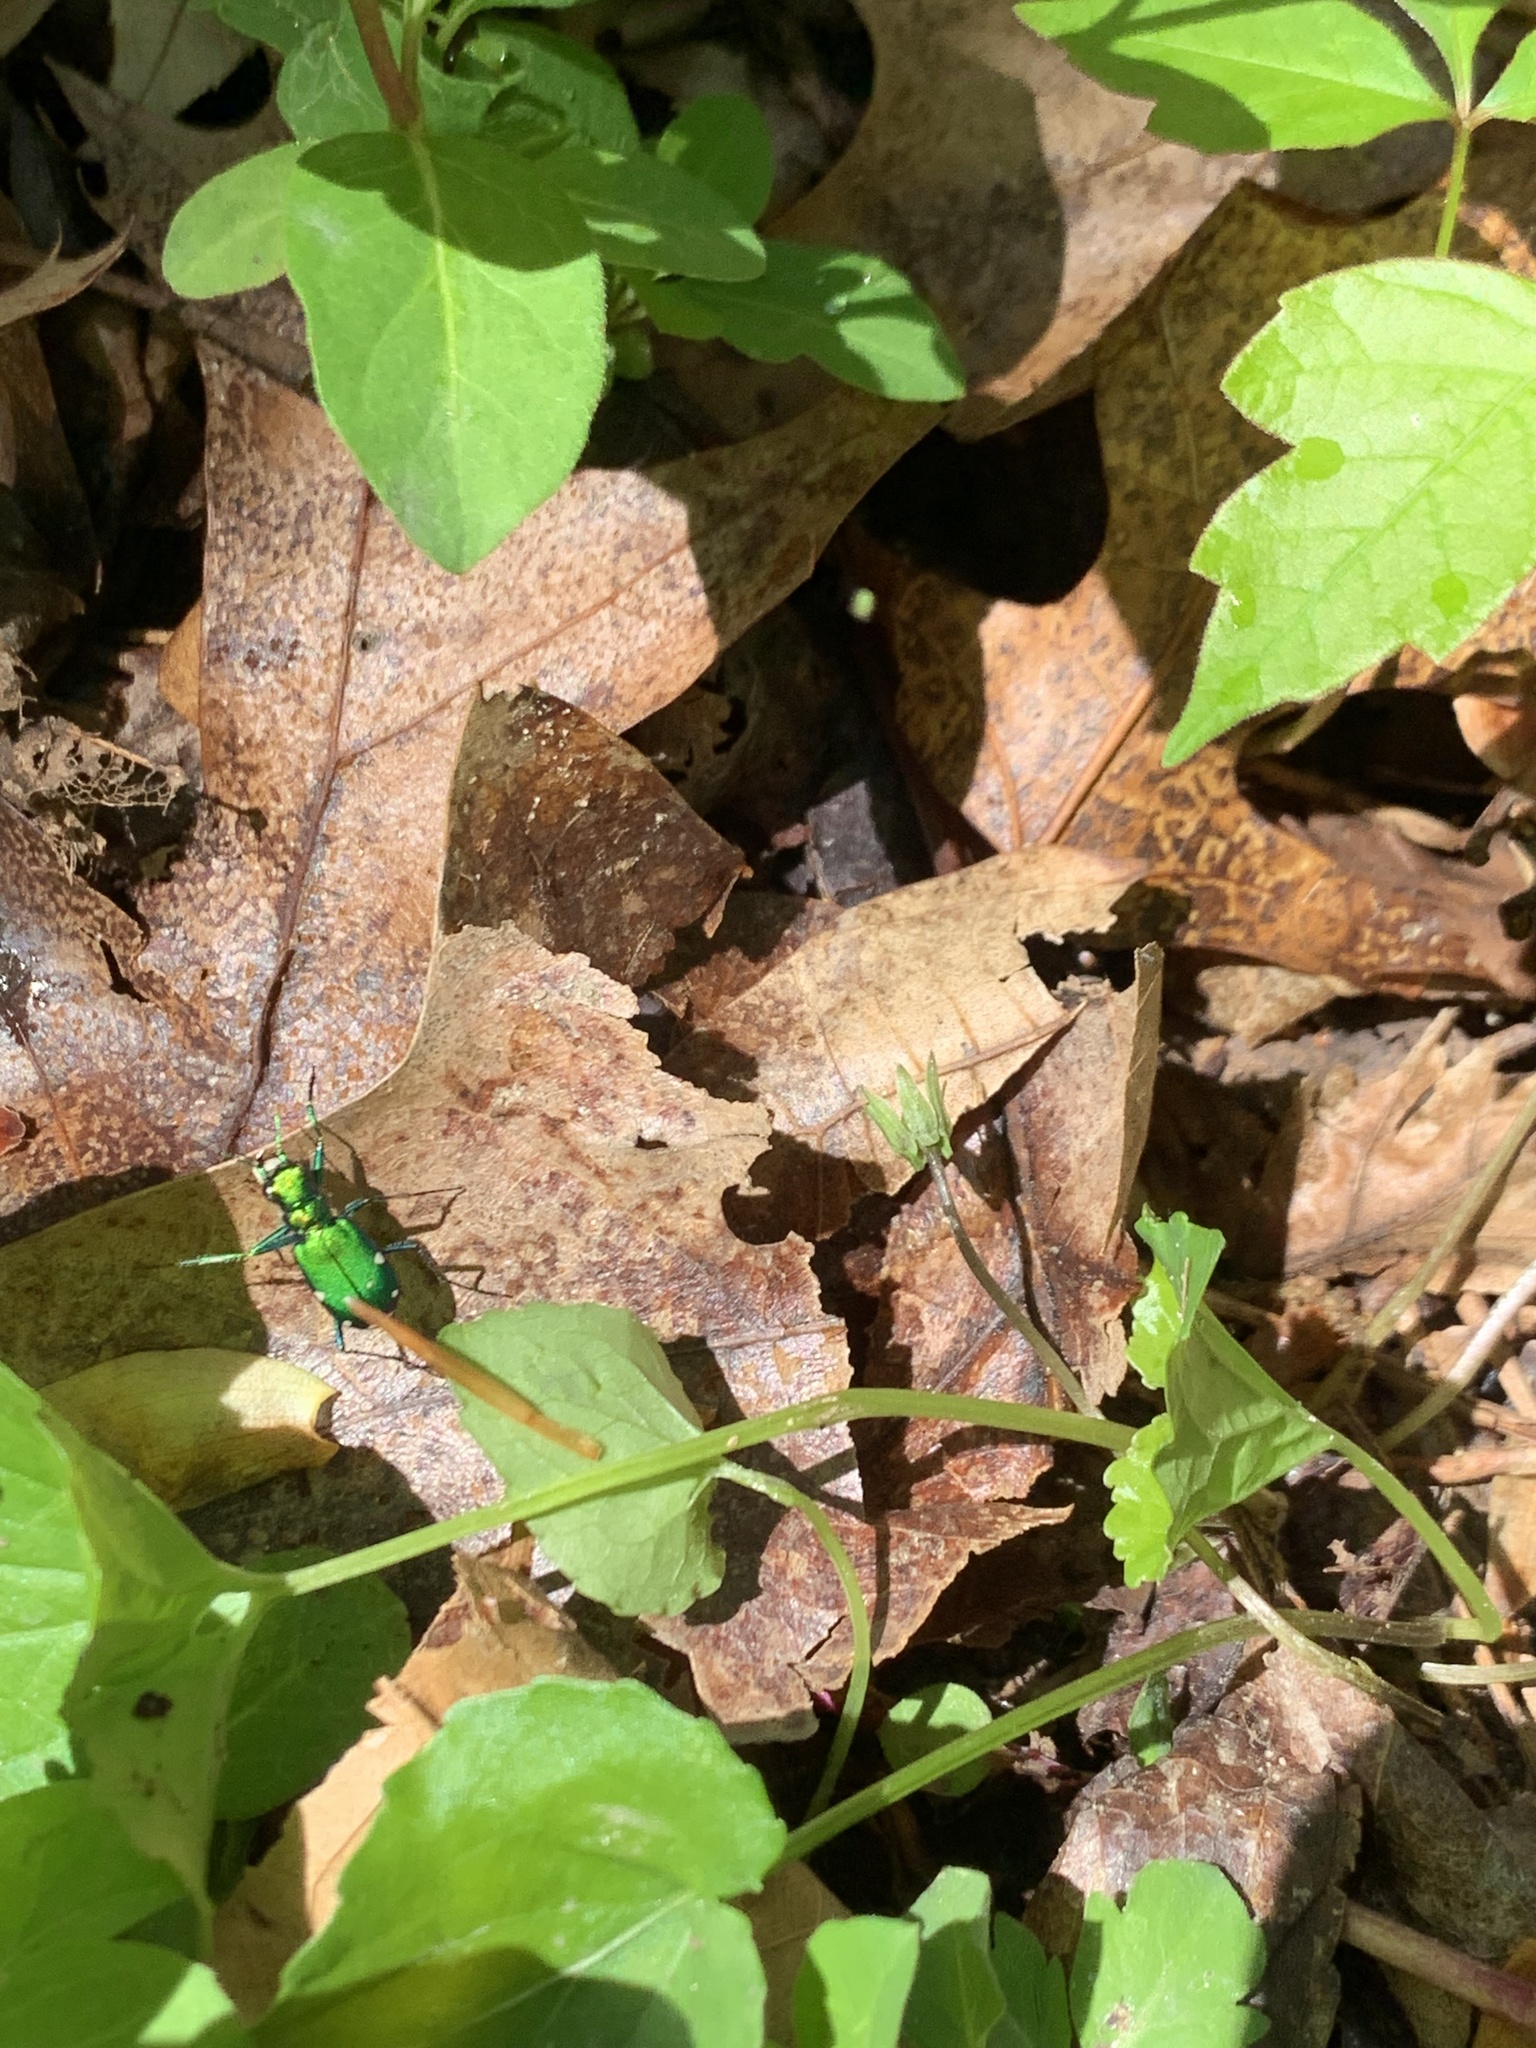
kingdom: Animalia
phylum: Arthropoda
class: Insecta
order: Coleoptera
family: Carabidae
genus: Cicindela
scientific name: Cicindela sexguttata
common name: Six-spotted tiger beetle
